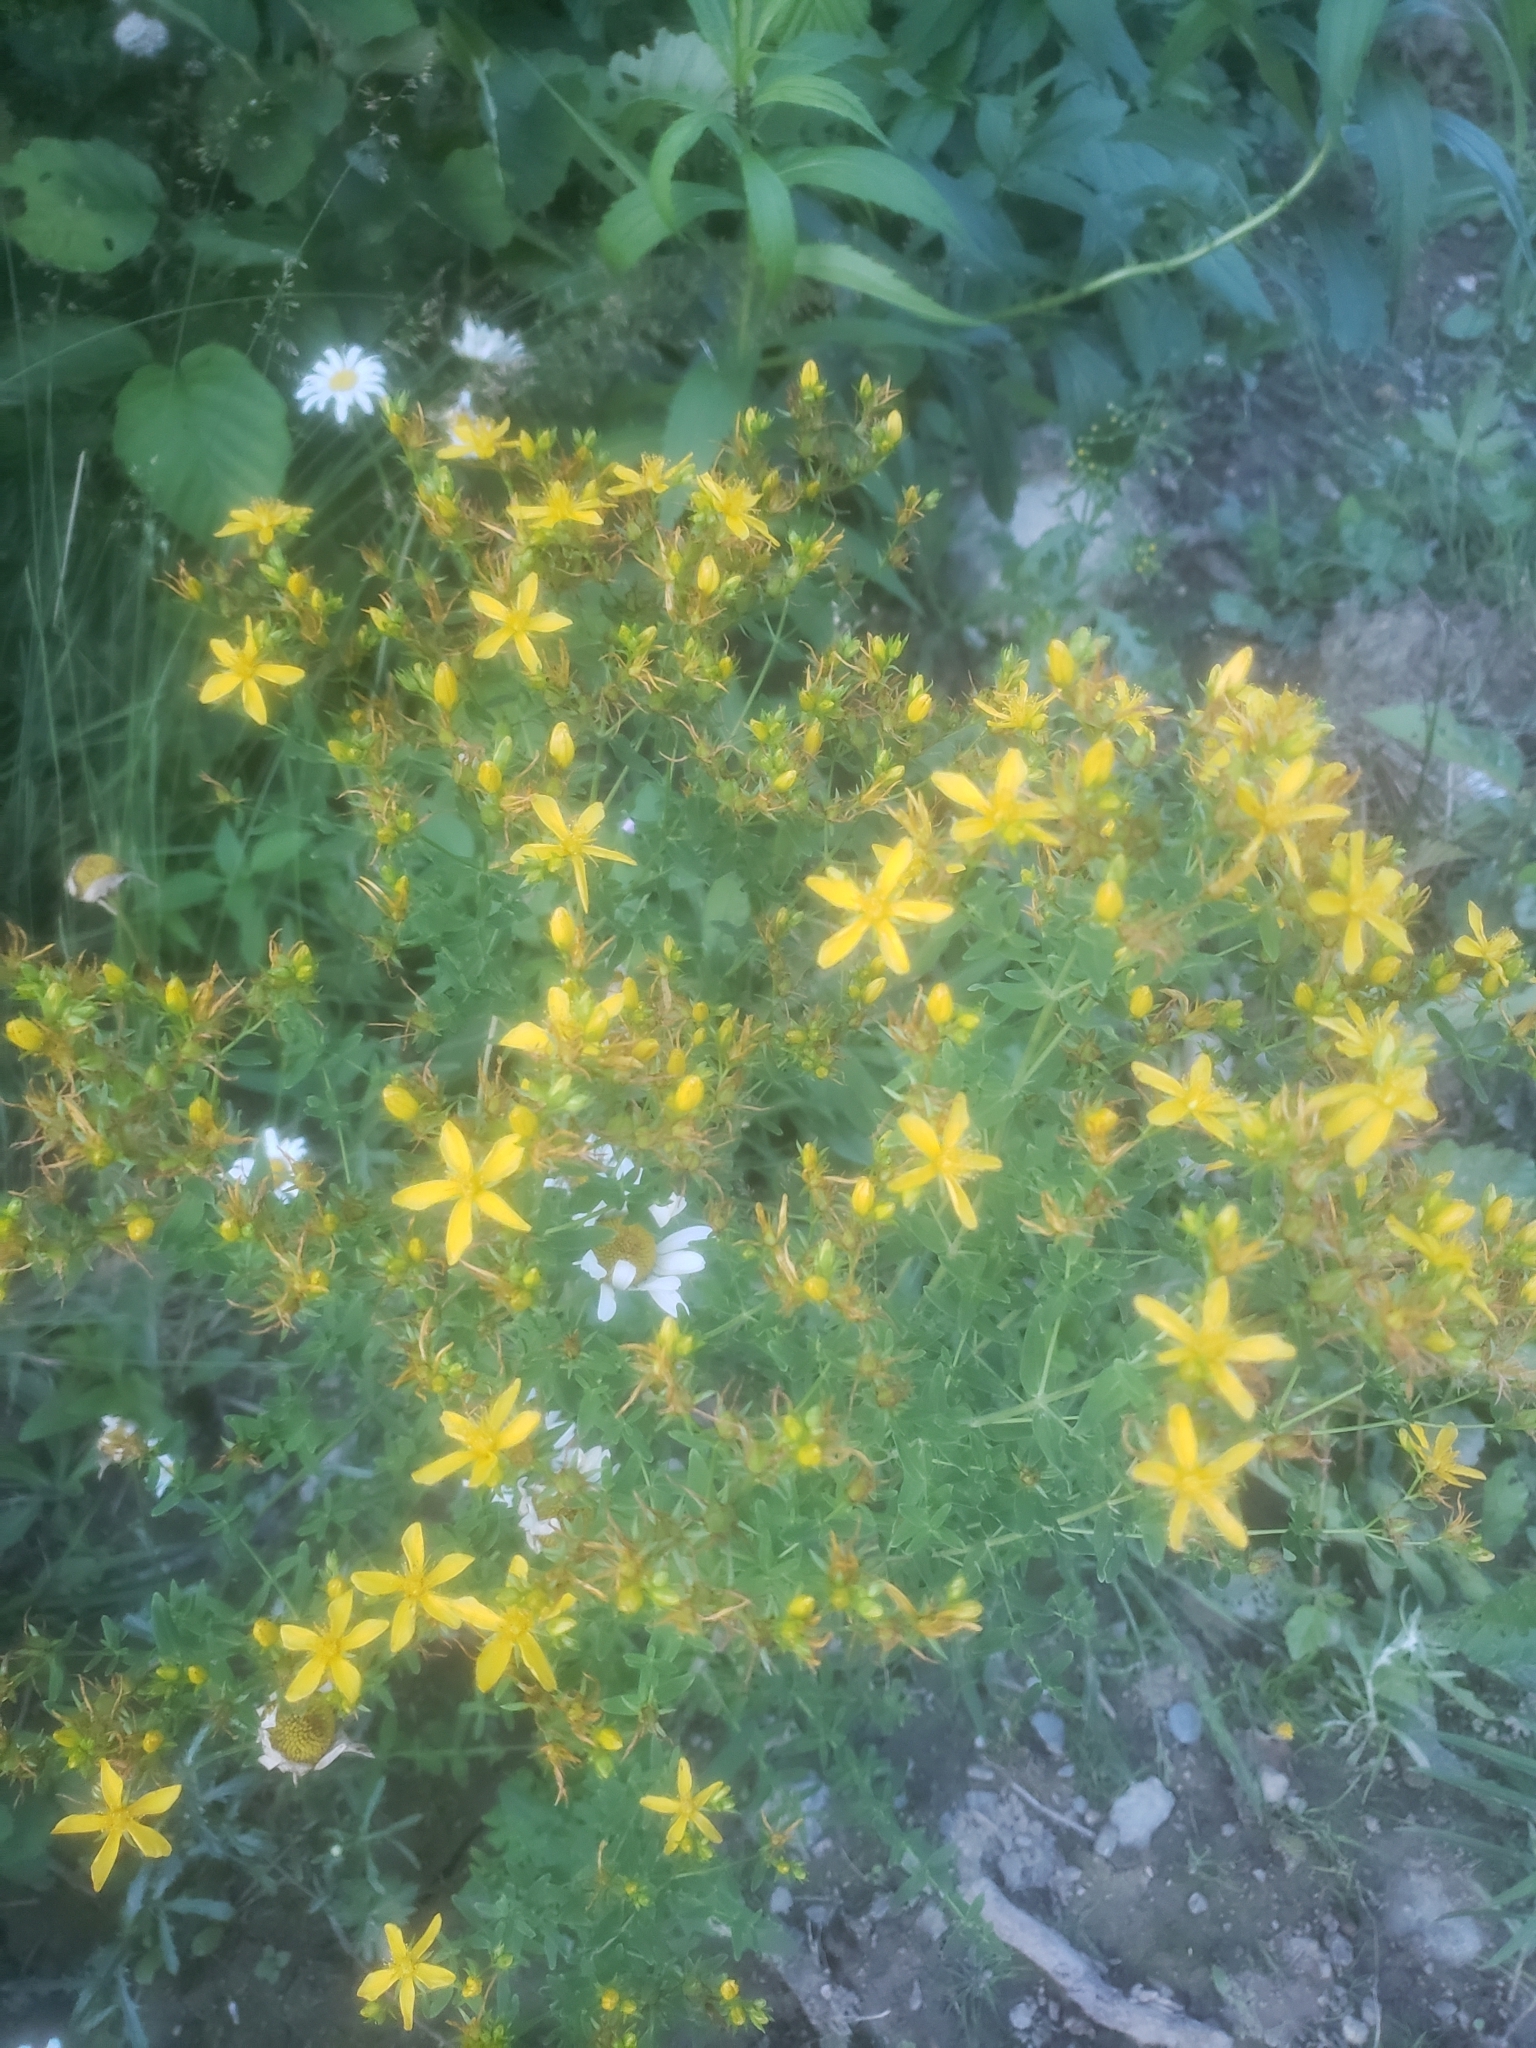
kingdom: Plantae
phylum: Tracheophyta
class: Magnoliopsida
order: Malpighiales
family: Hypericaceae
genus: Hypericum
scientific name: Hypericum perforatum
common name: Common st. johnswort
